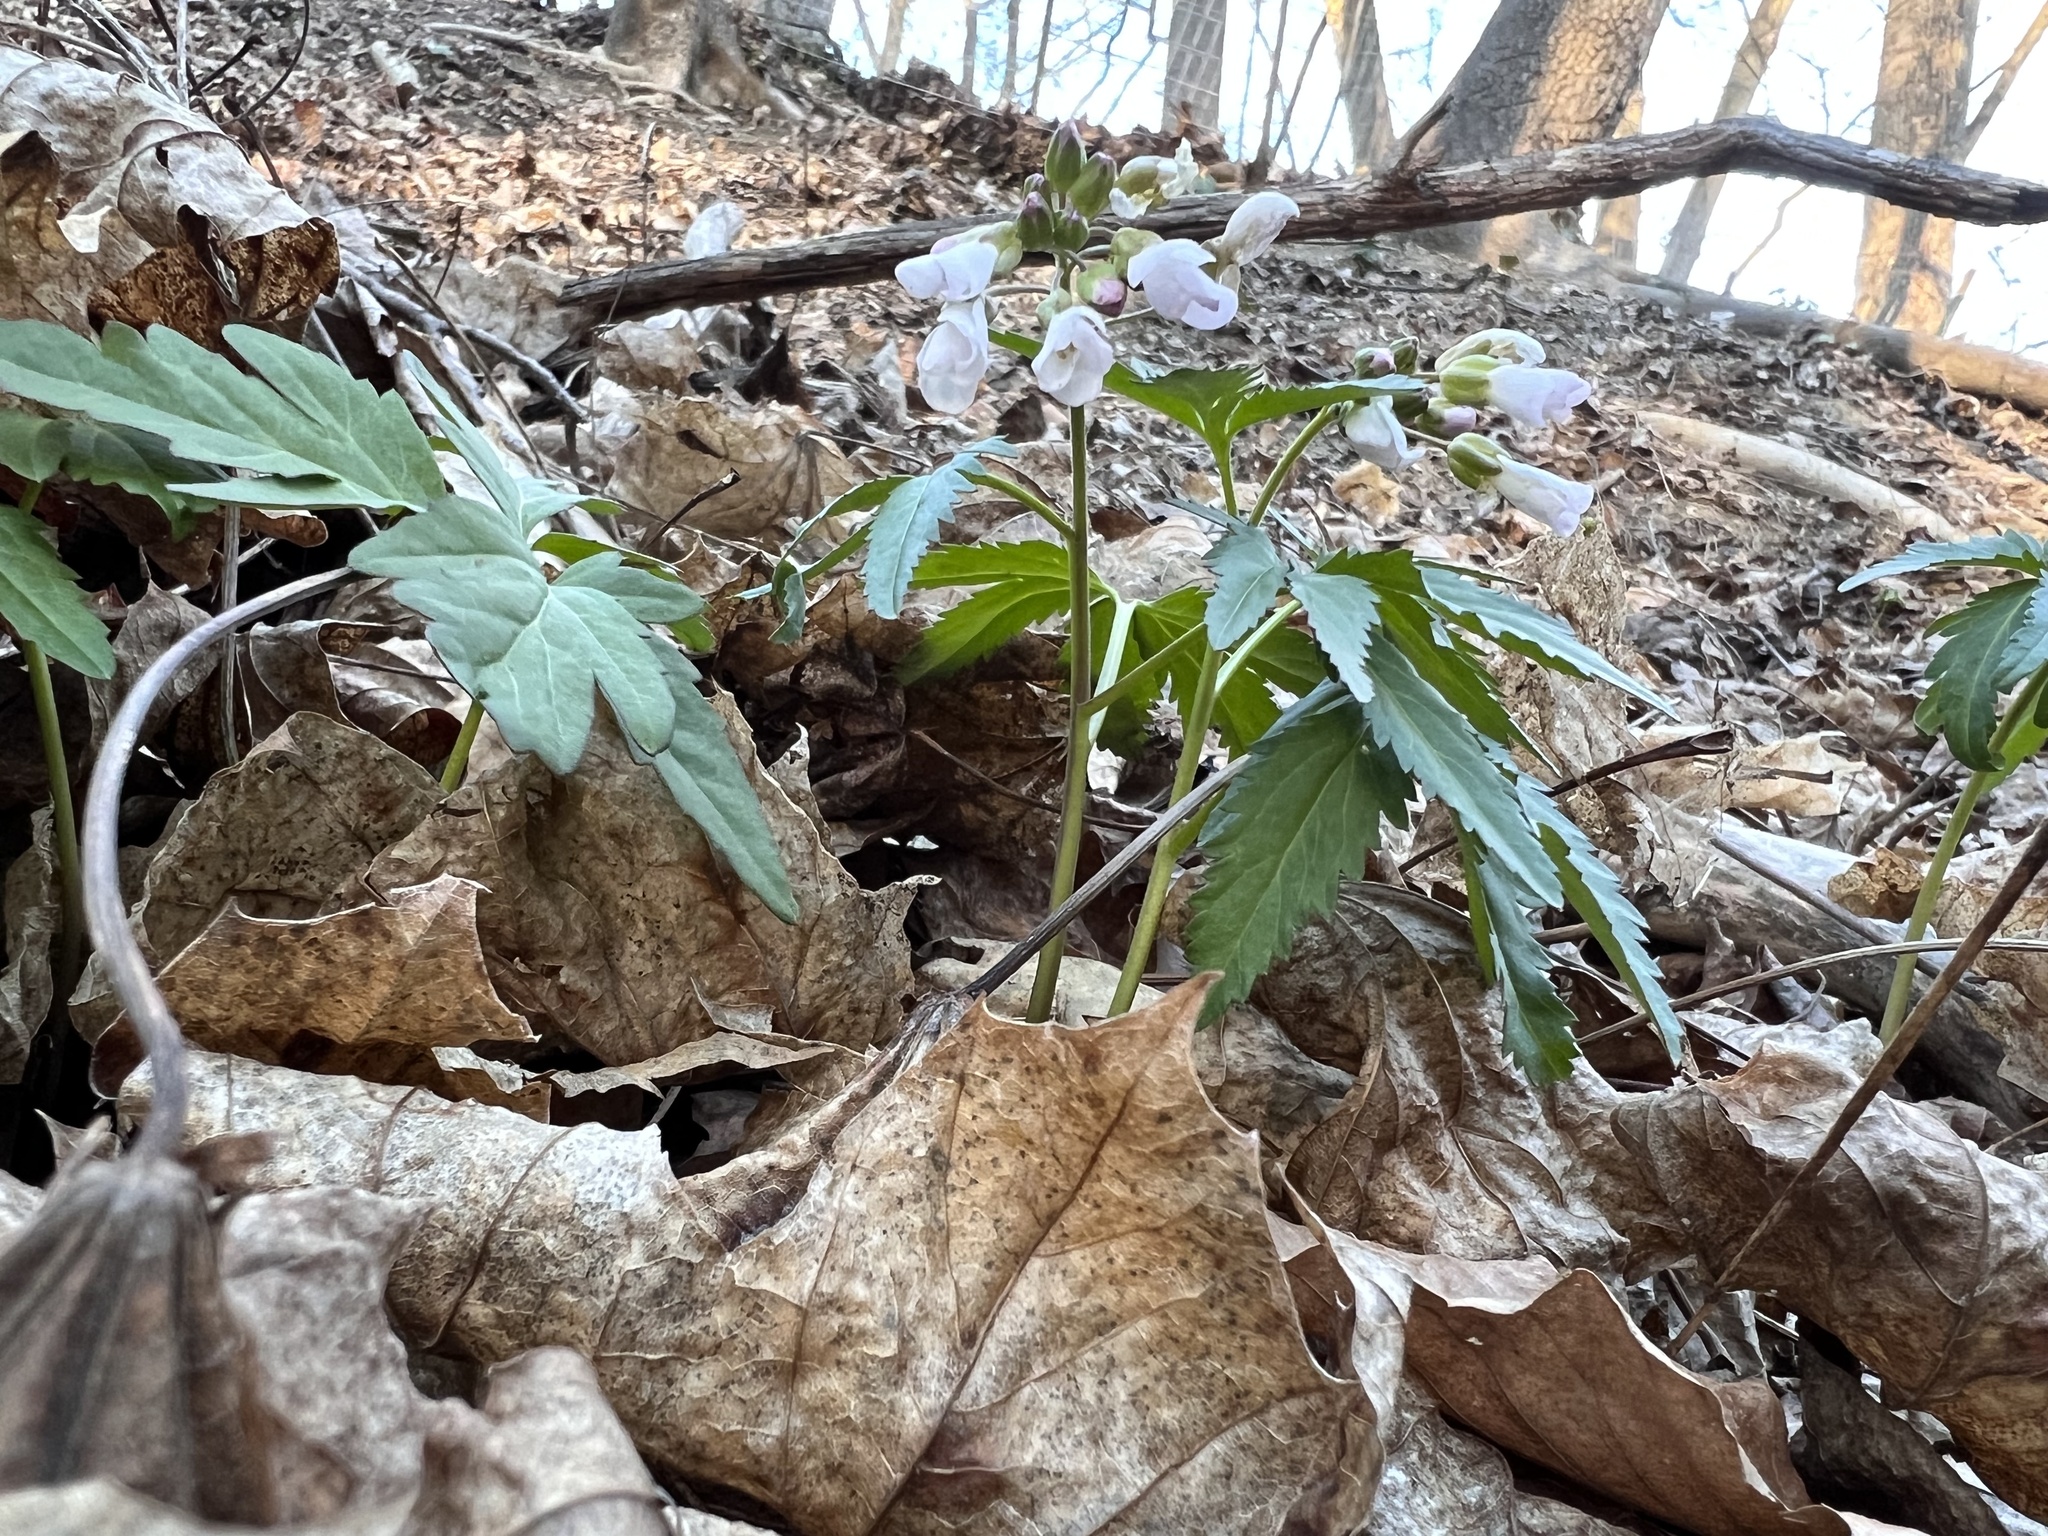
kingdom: Plantae
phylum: Tracheophyta
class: Magnoliopsida
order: Brassicales
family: Brassicaceae
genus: Cardamine
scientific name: Cardamine concatenata
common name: Cut-leaf toothcup
